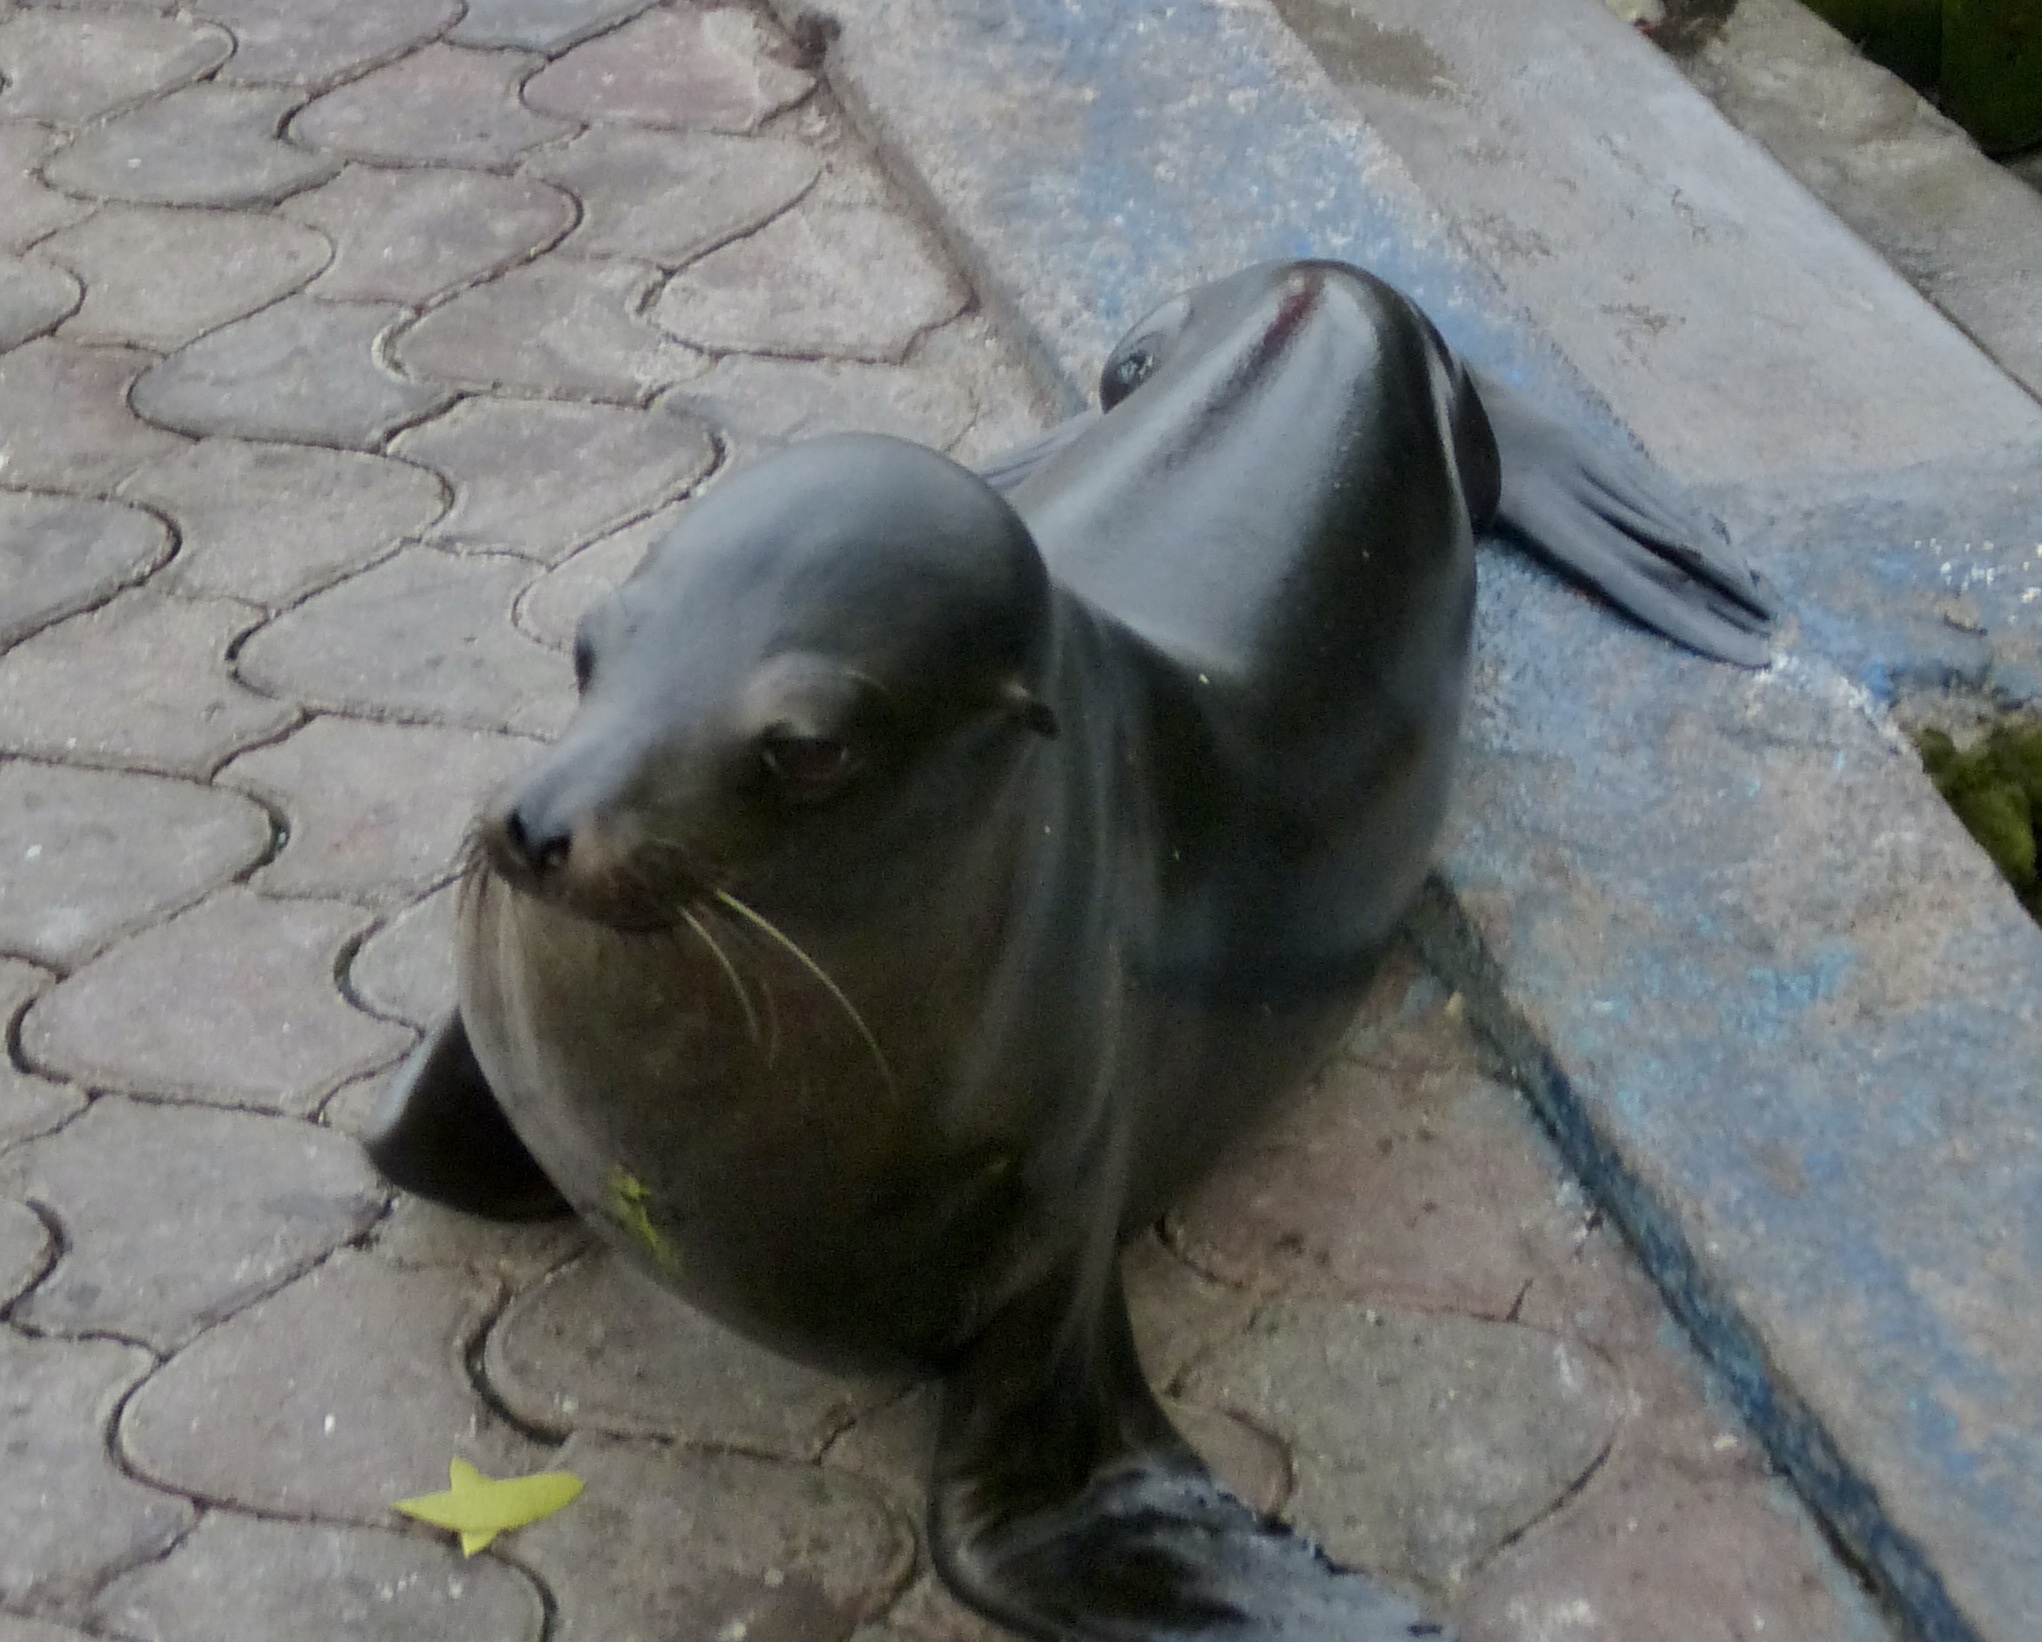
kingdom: Animalia
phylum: Chordata
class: Mammalia
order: Carnivora
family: Otariidae
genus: Zalophus
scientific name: Zalophus wollebaeki
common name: Galapagos sea lion
